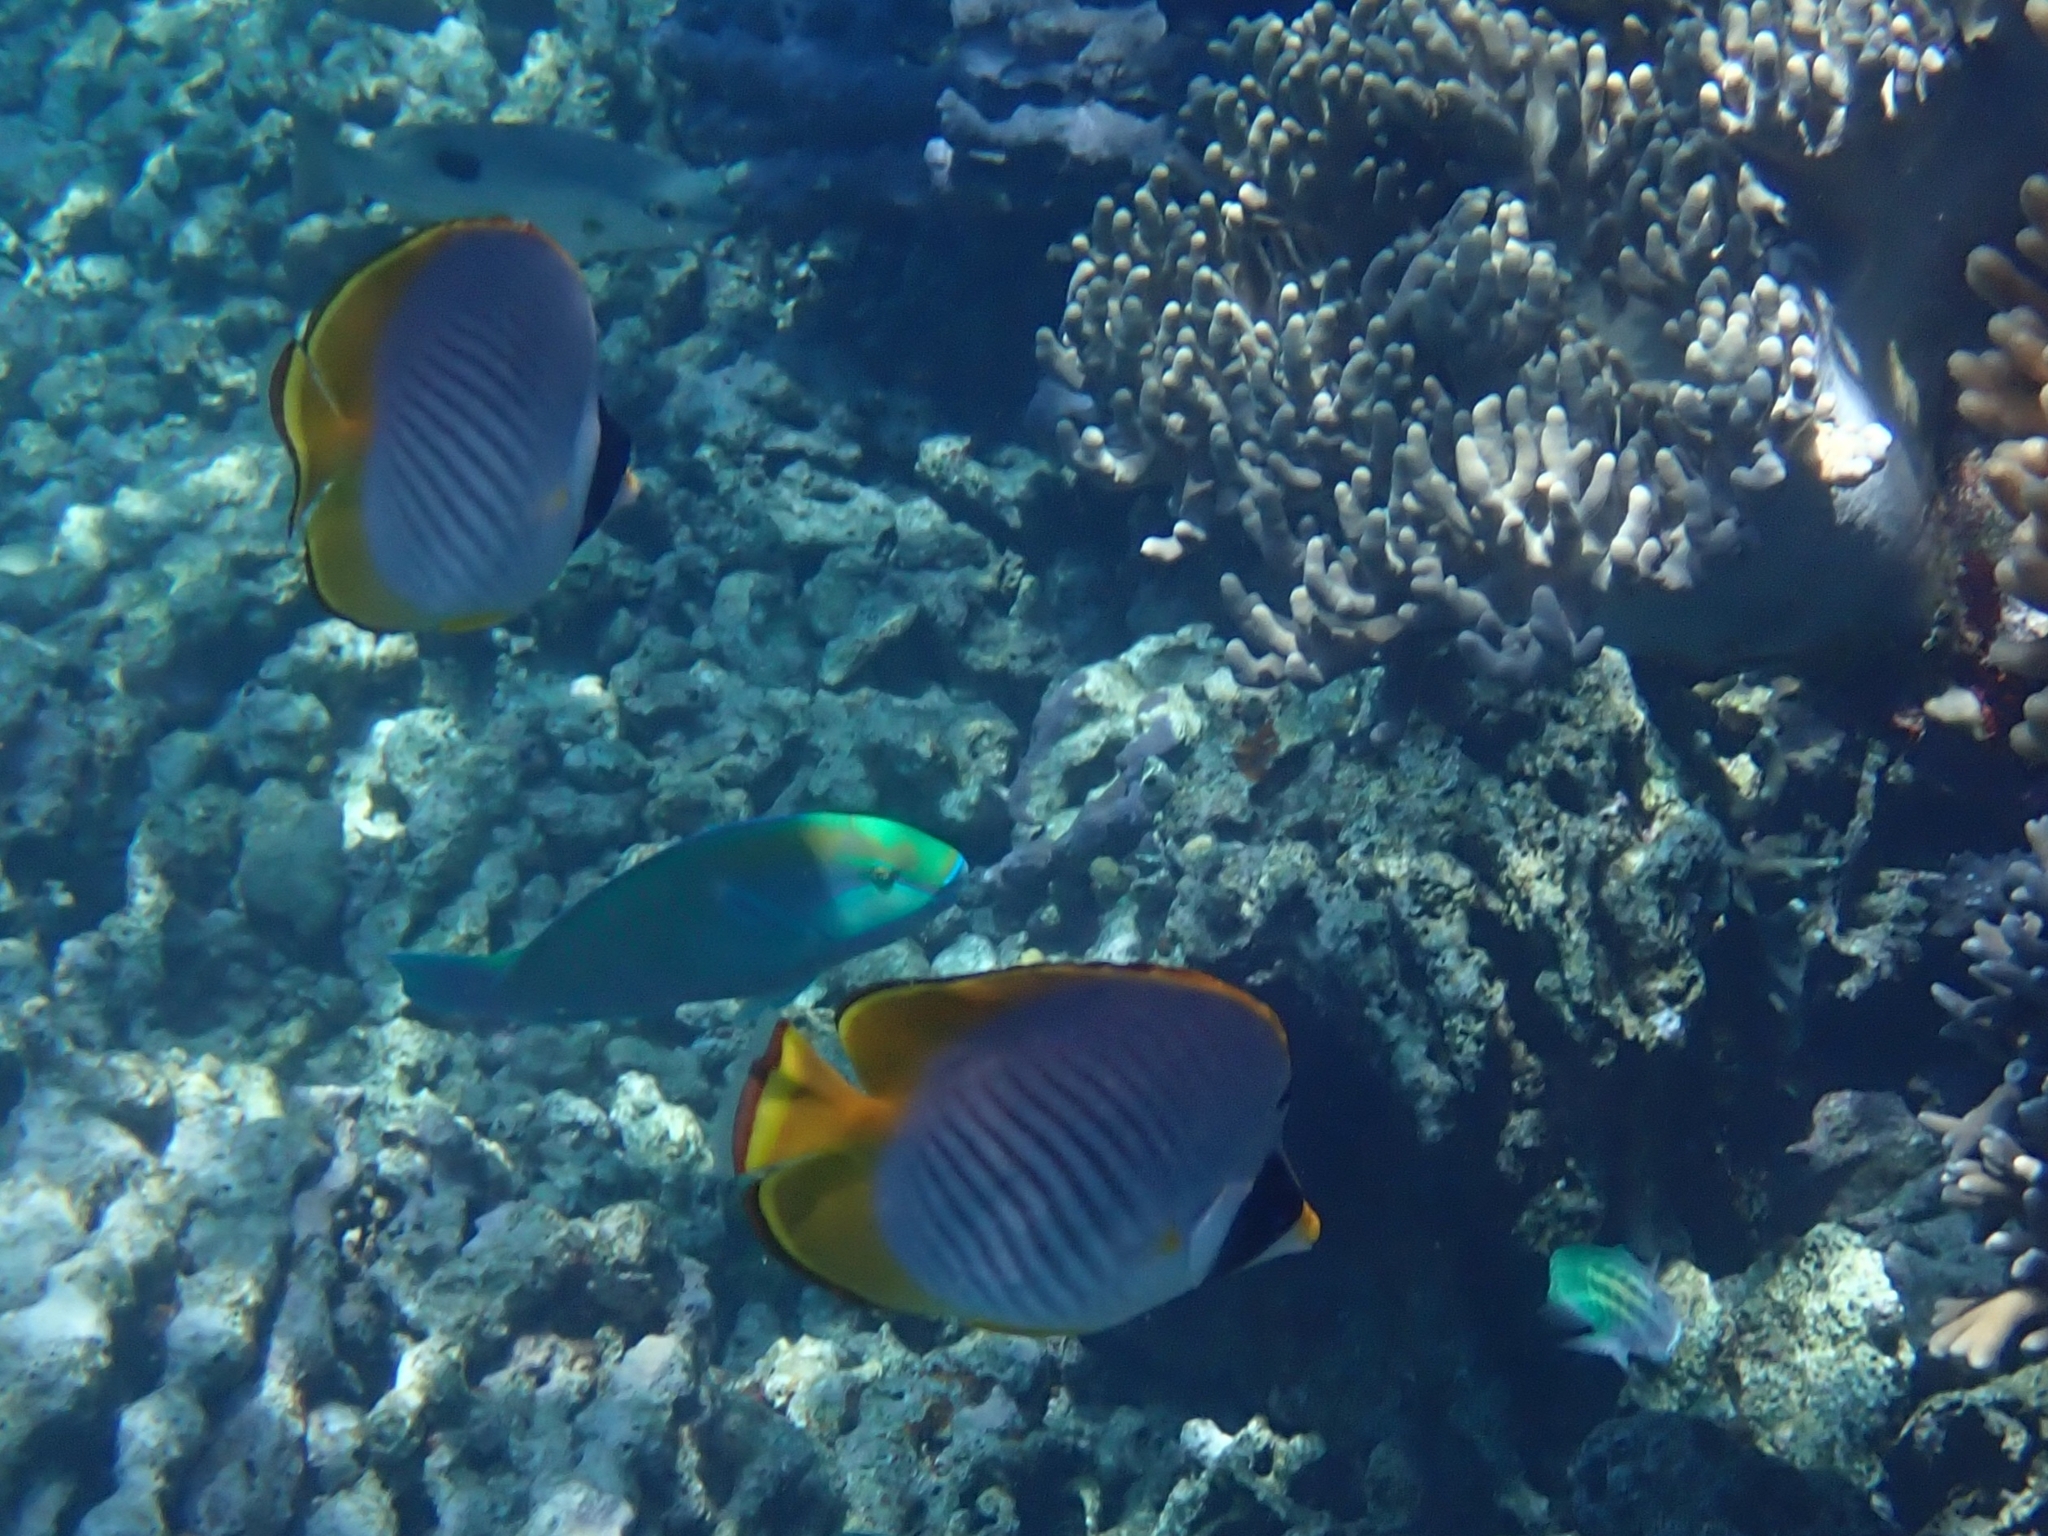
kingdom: Animalia
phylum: Chordata
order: Perciformes
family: Chaetodontidae
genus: Chaetodon
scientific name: Chaetodon adiergastos
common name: Eye-patch butterflyfish
